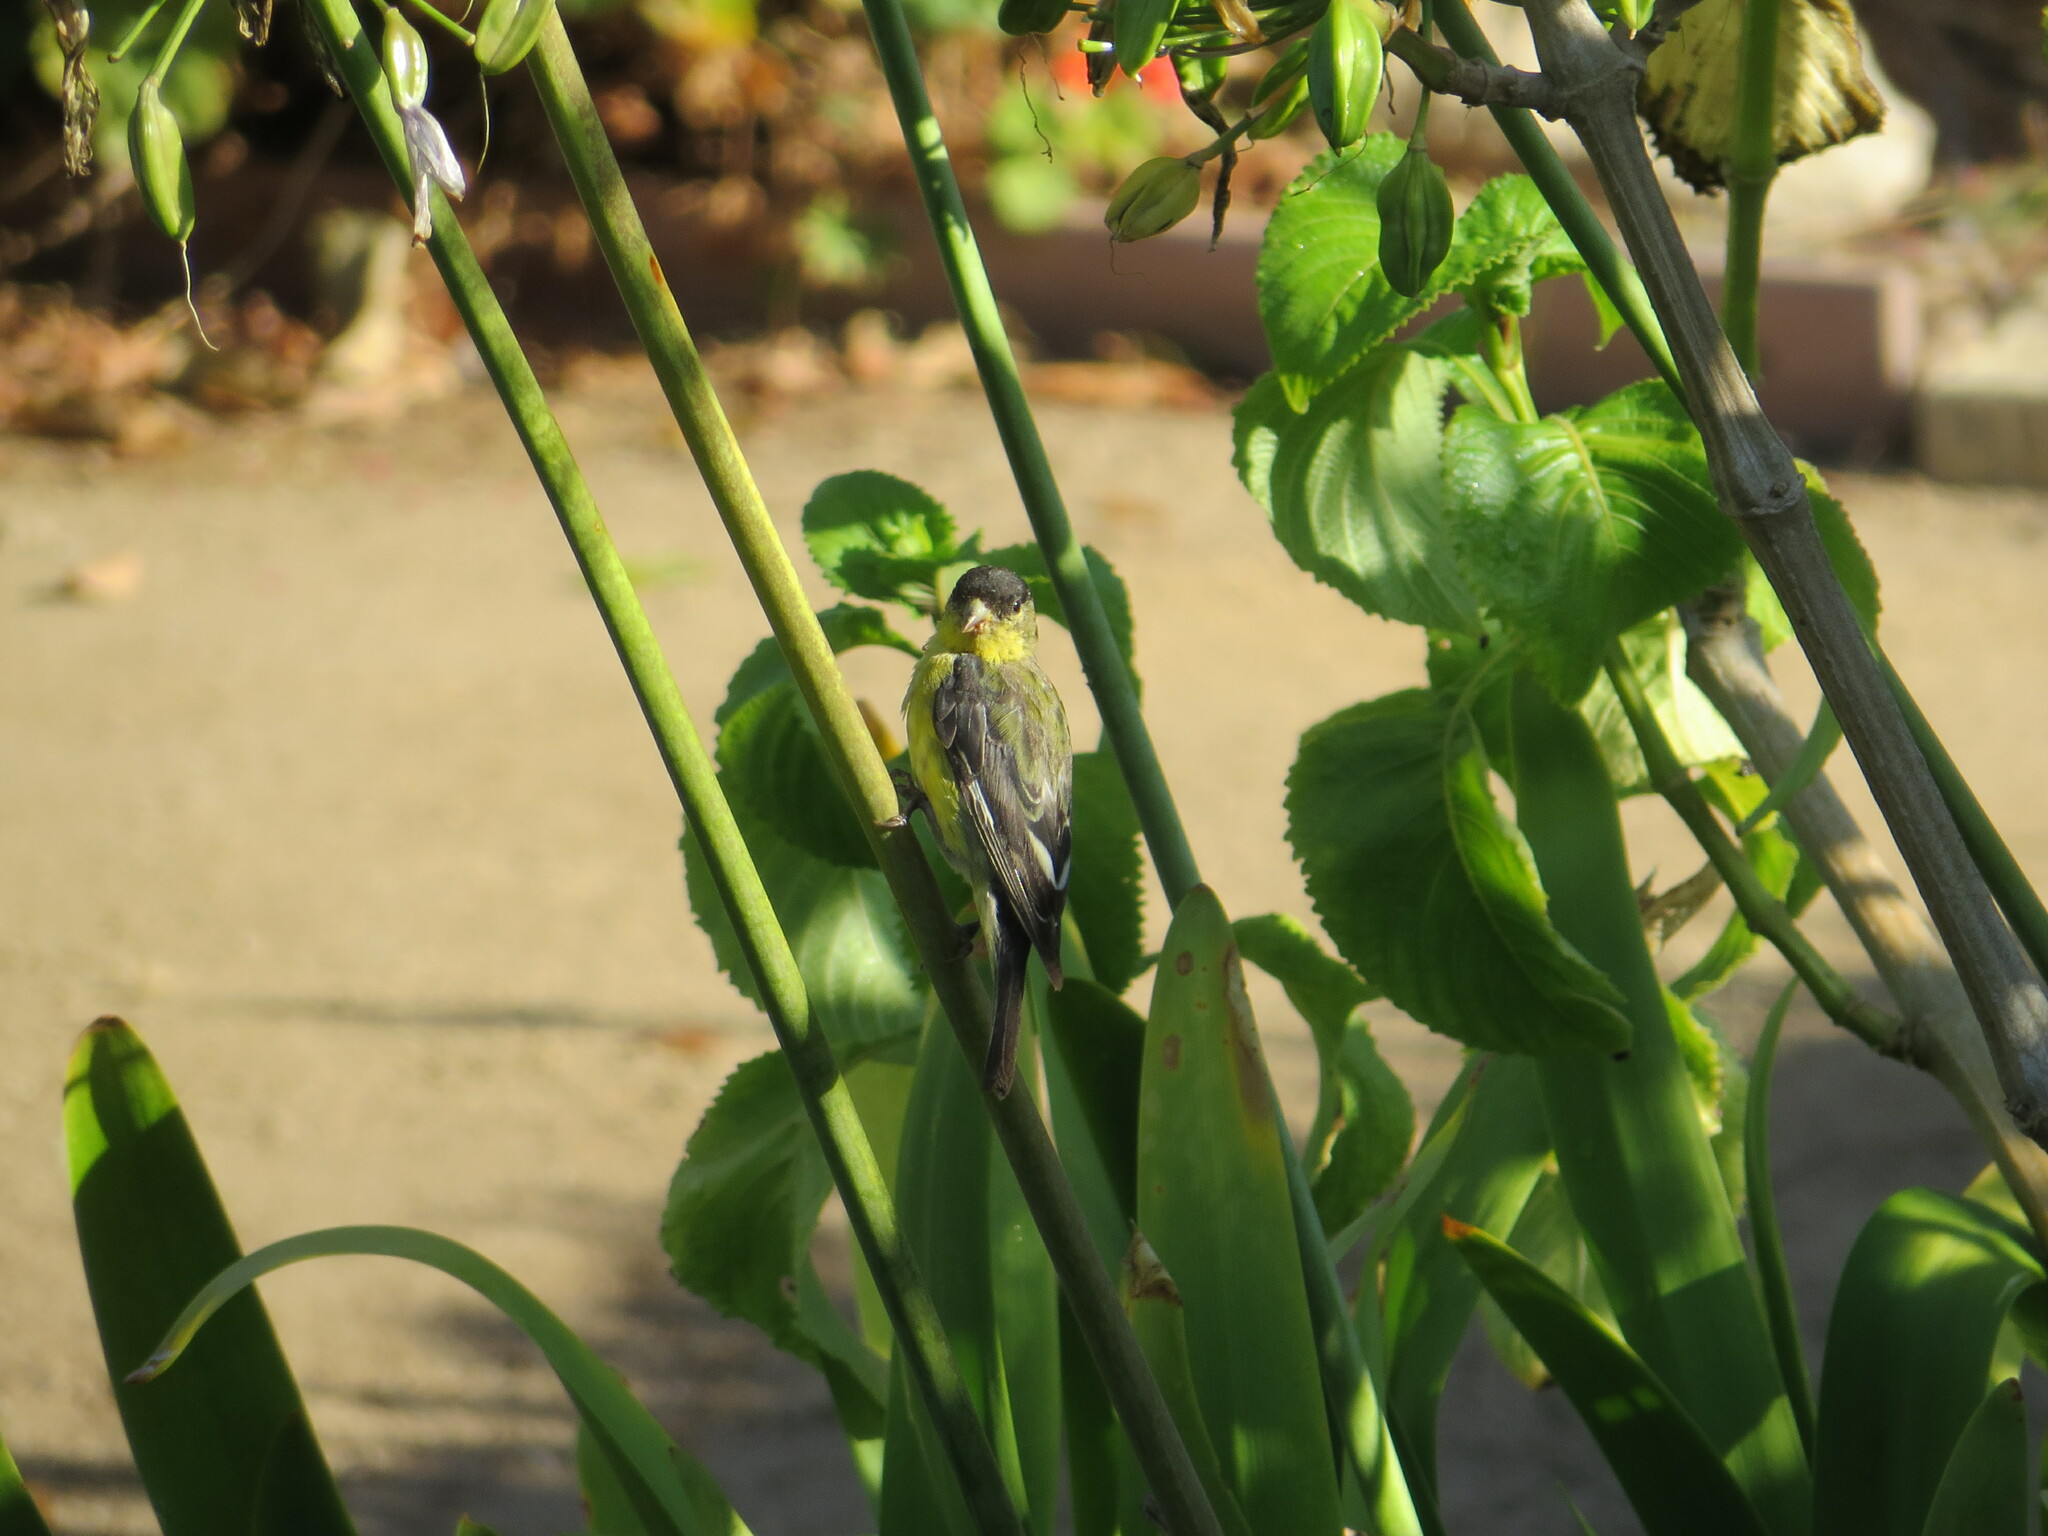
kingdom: Animalia
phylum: Chordata
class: Aves
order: Passeriformes
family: Fringillidae
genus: Spinus
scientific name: Spinus psaltria
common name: Lesser goldfinch
